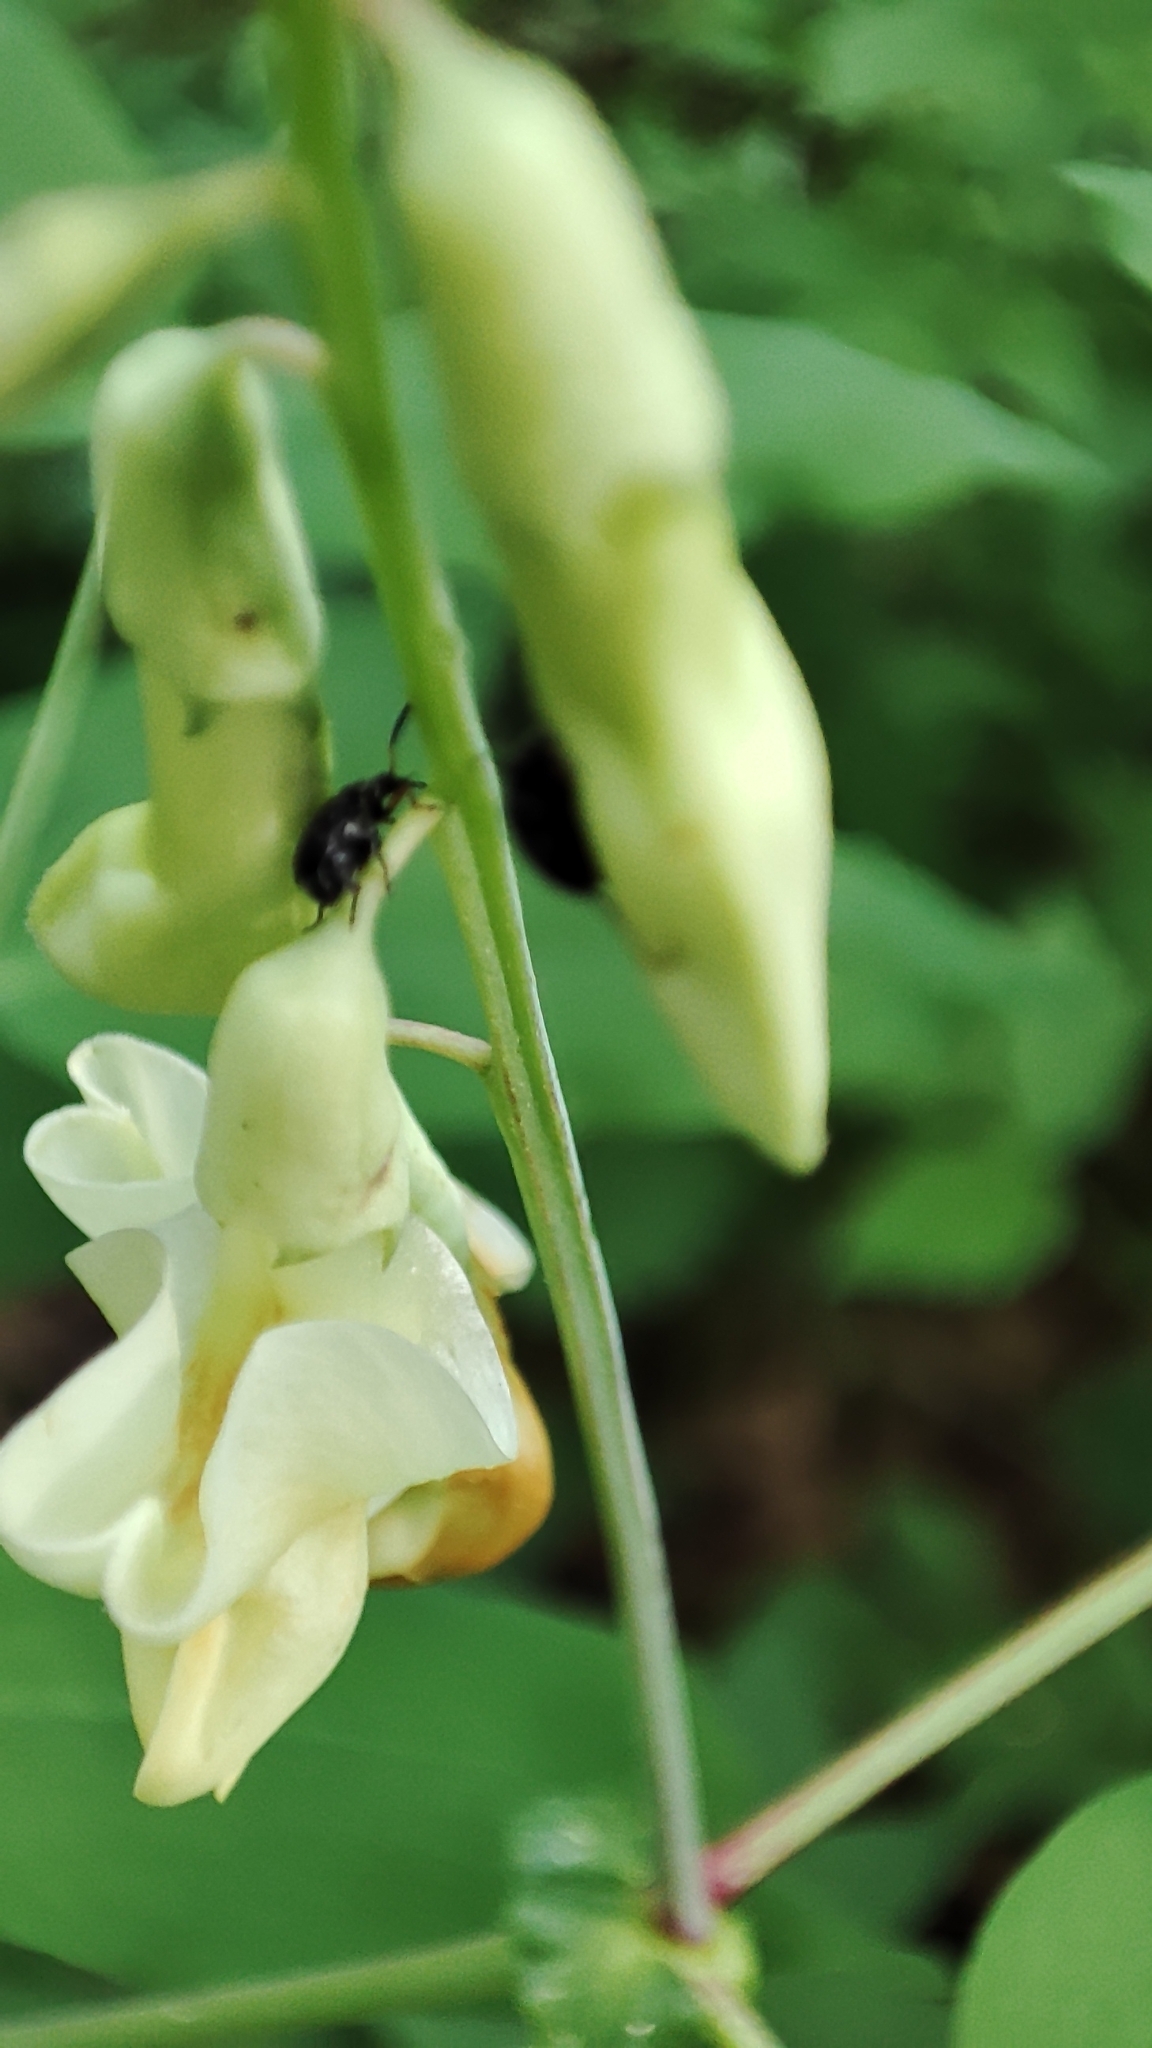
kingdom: Plantae
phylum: Tracheophyta
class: Magnoliopsida
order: Fabales
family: Fabaceae
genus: Lathyrus
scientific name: Lathyrus gmelinii
